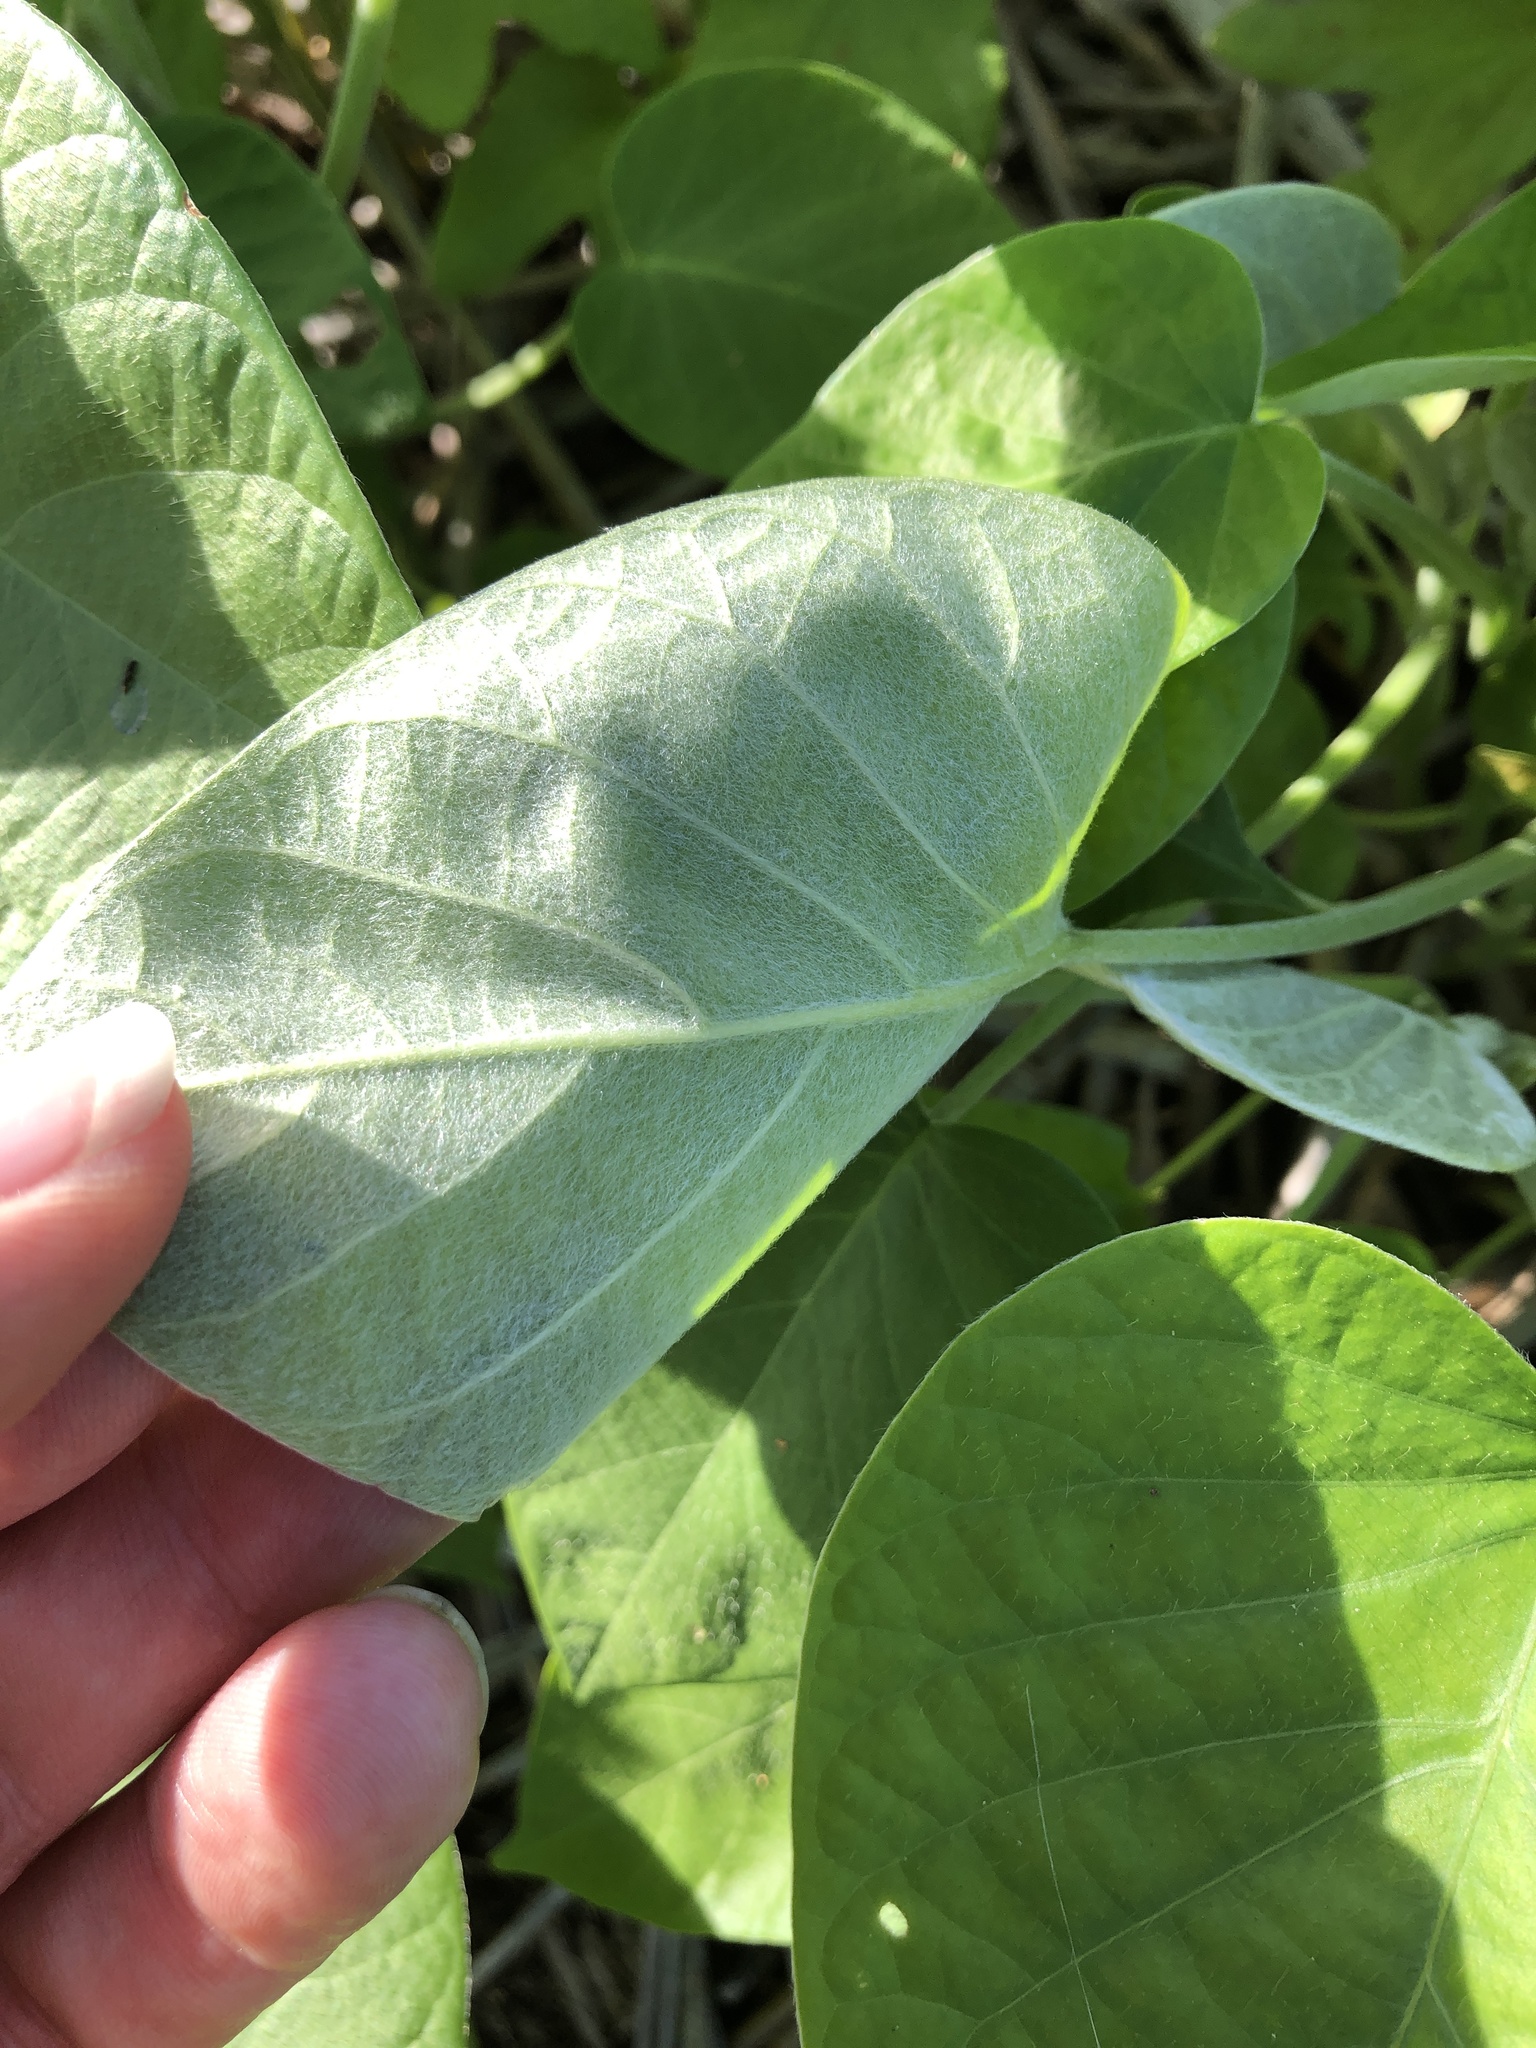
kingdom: Plantae
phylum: Tracheophyta
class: Magnoliopsida
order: Solanales
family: Convolvulaceae
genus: Argyreia
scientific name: Argyreia nervosa
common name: Elephant creeper
